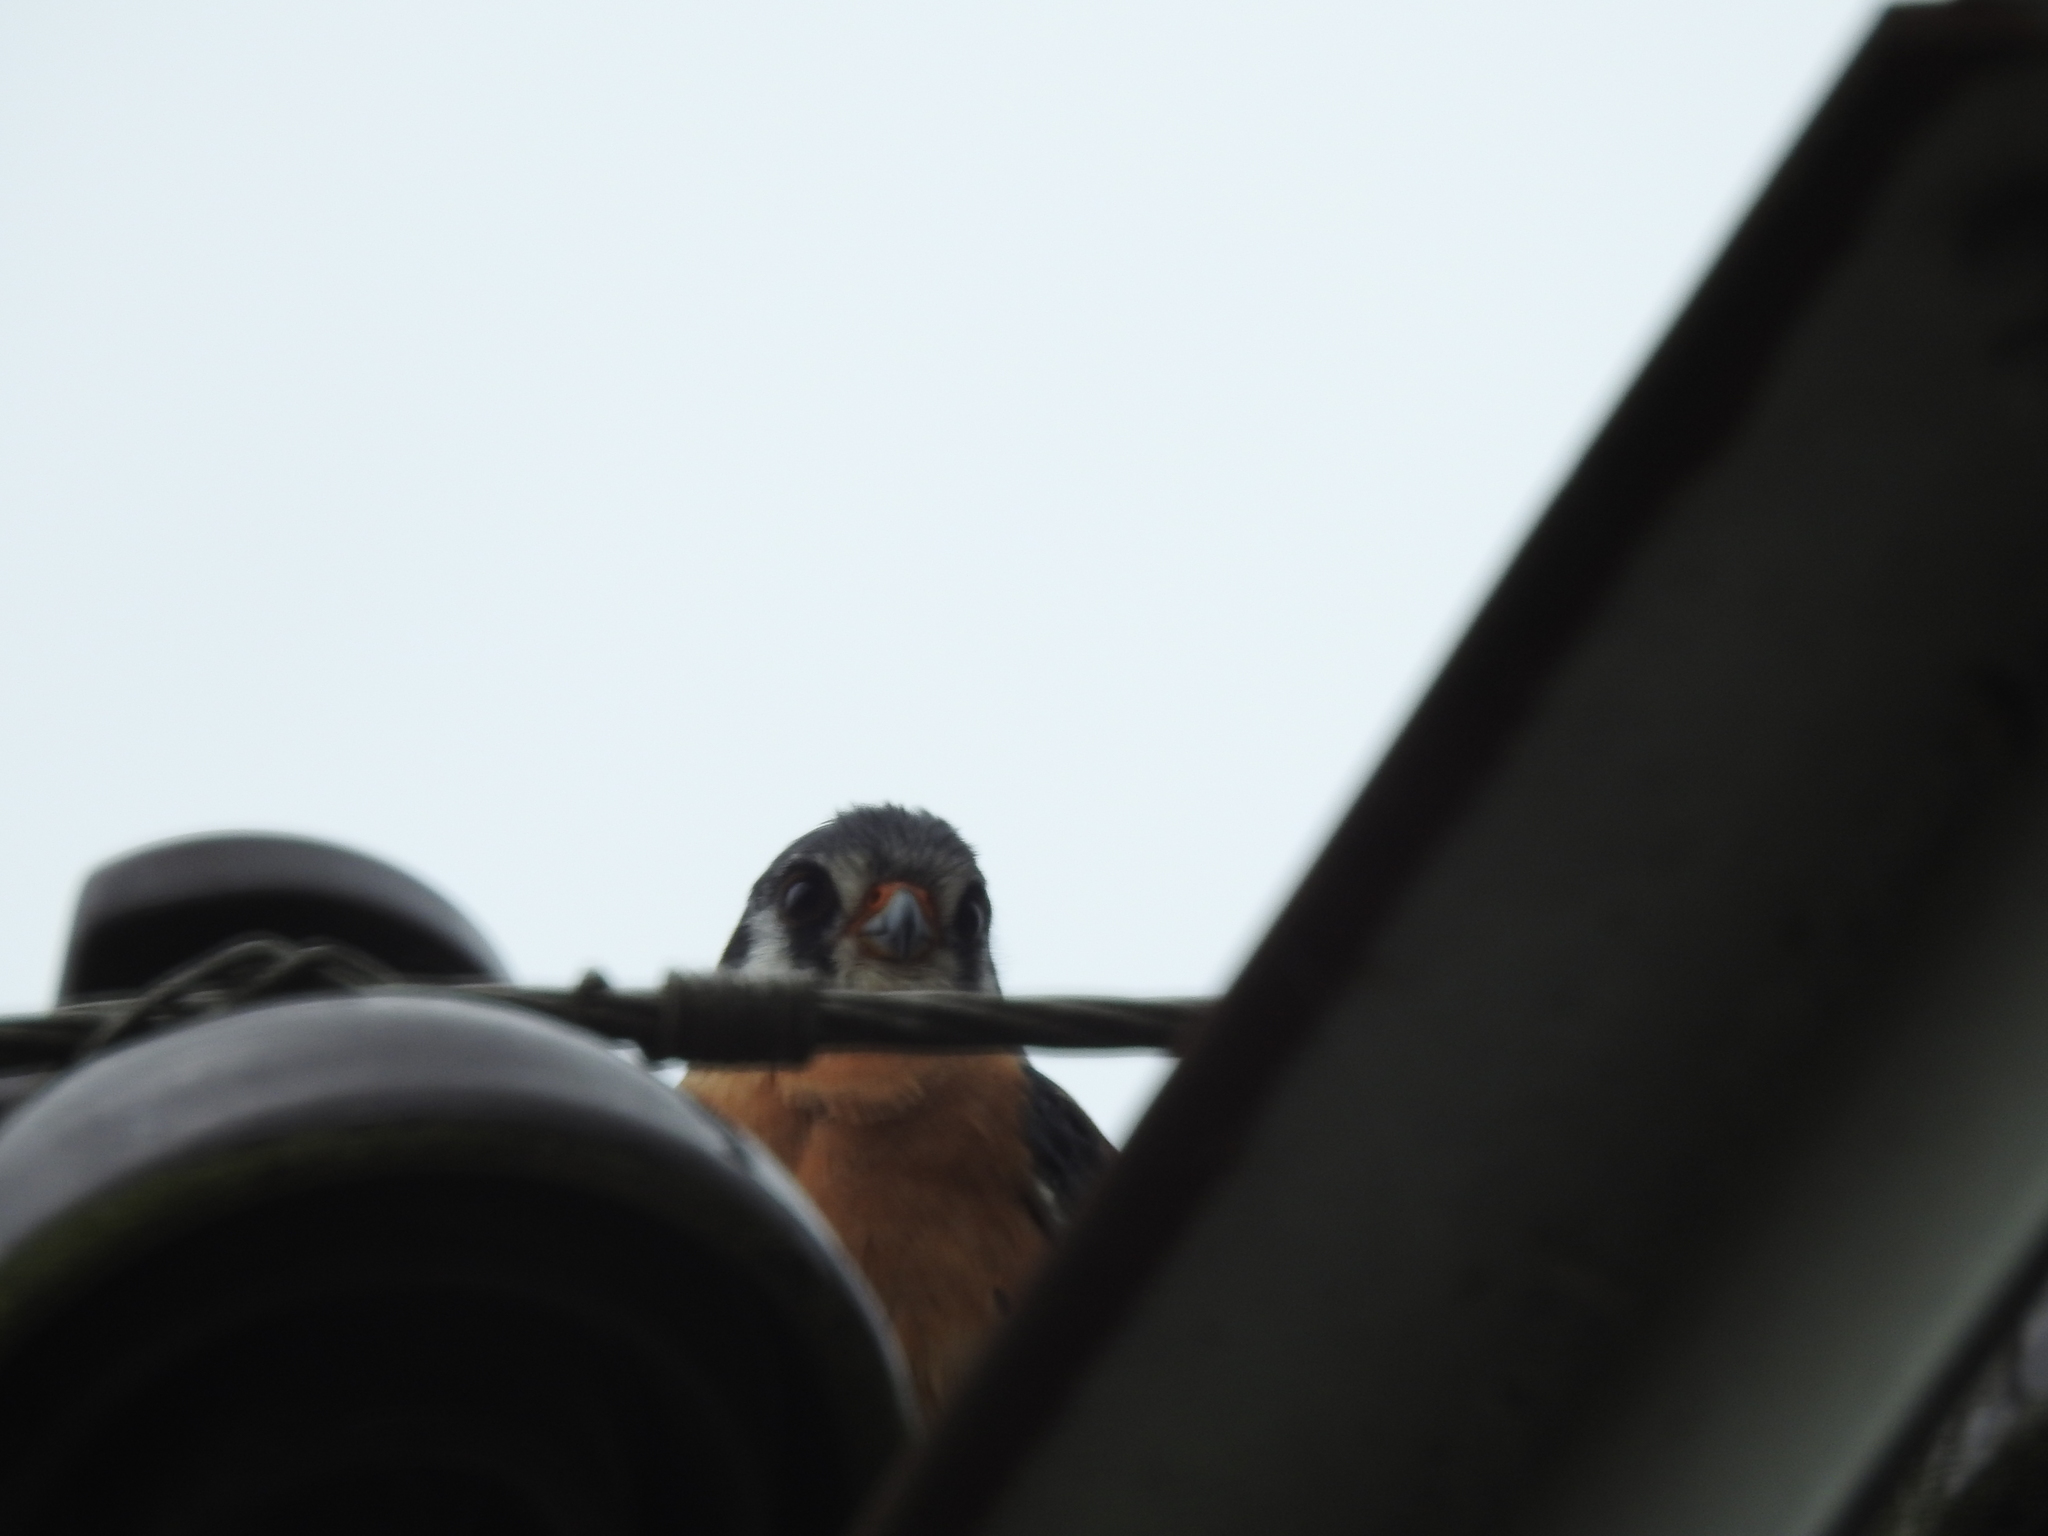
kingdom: Animalia
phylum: Chordata
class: Aves
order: Falconiformes
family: Falconidae
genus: Falco
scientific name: Falco sparverius
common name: American kestrel
